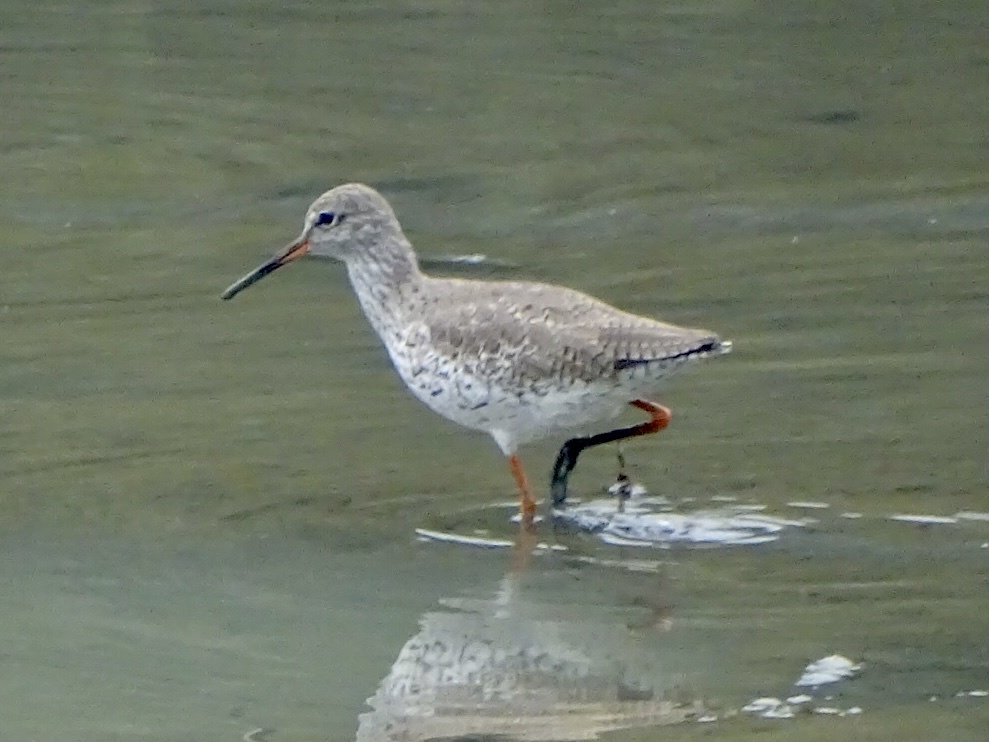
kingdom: Animalia
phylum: Chordata
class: Aves
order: Charadriiformes
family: Scolopacidae
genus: Tringa
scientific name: Tringa totanus
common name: Common redshank
